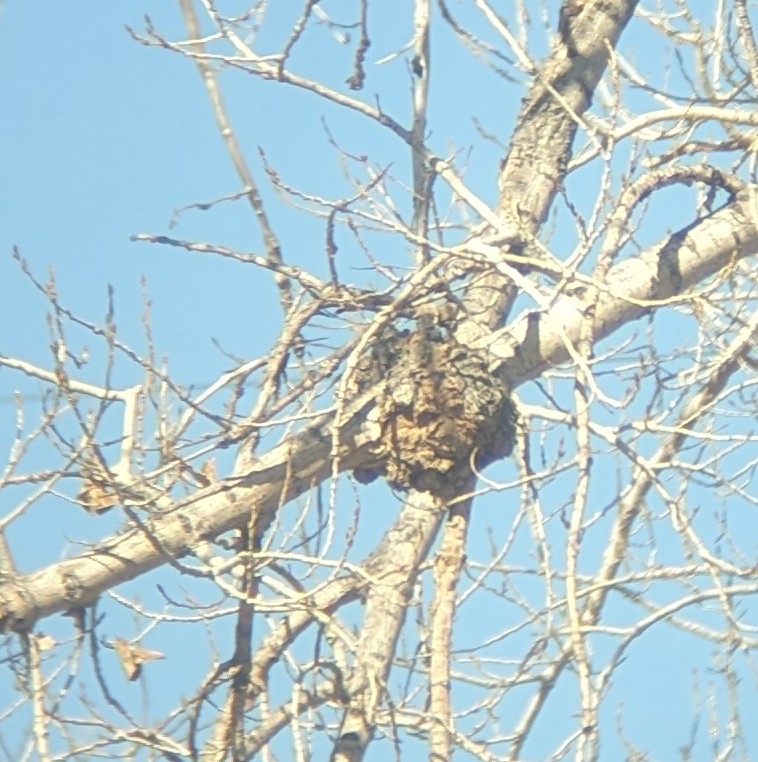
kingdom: Fungi
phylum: Ascomycota
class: Dothideomycetes
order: Botryosphaeriales
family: Botryosphaeriaceae
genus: Diplodia
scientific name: Diplodia tumefaciens
